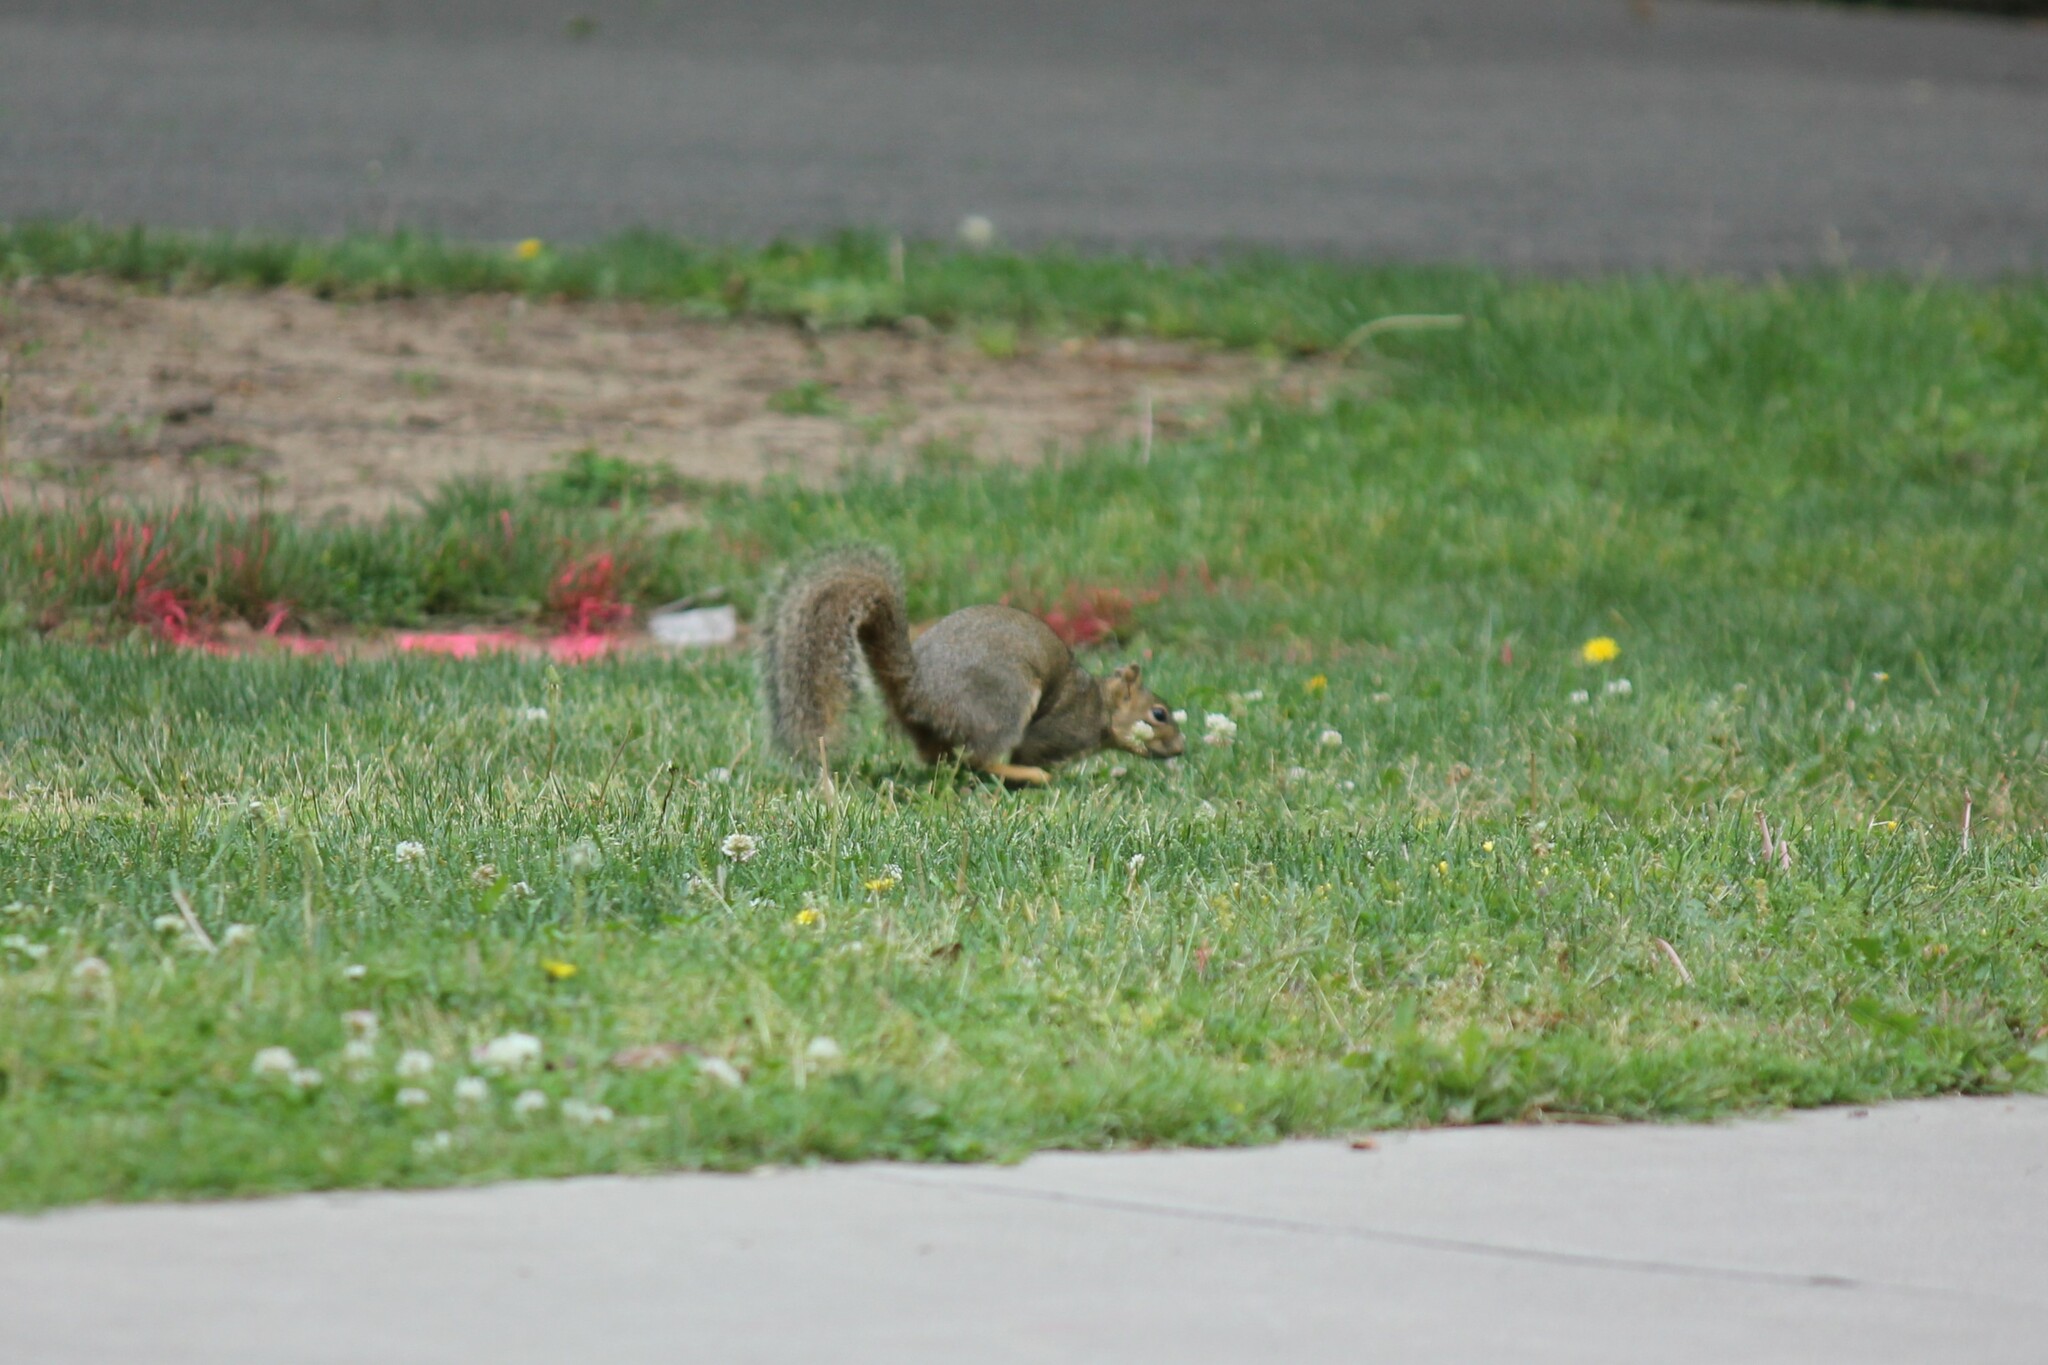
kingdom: Animalia
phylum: Chordata
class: Mammalia
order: Rodentia
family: Sciuridae
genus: Sciurus
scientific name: Sciurus niger
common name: Fox squirrel
